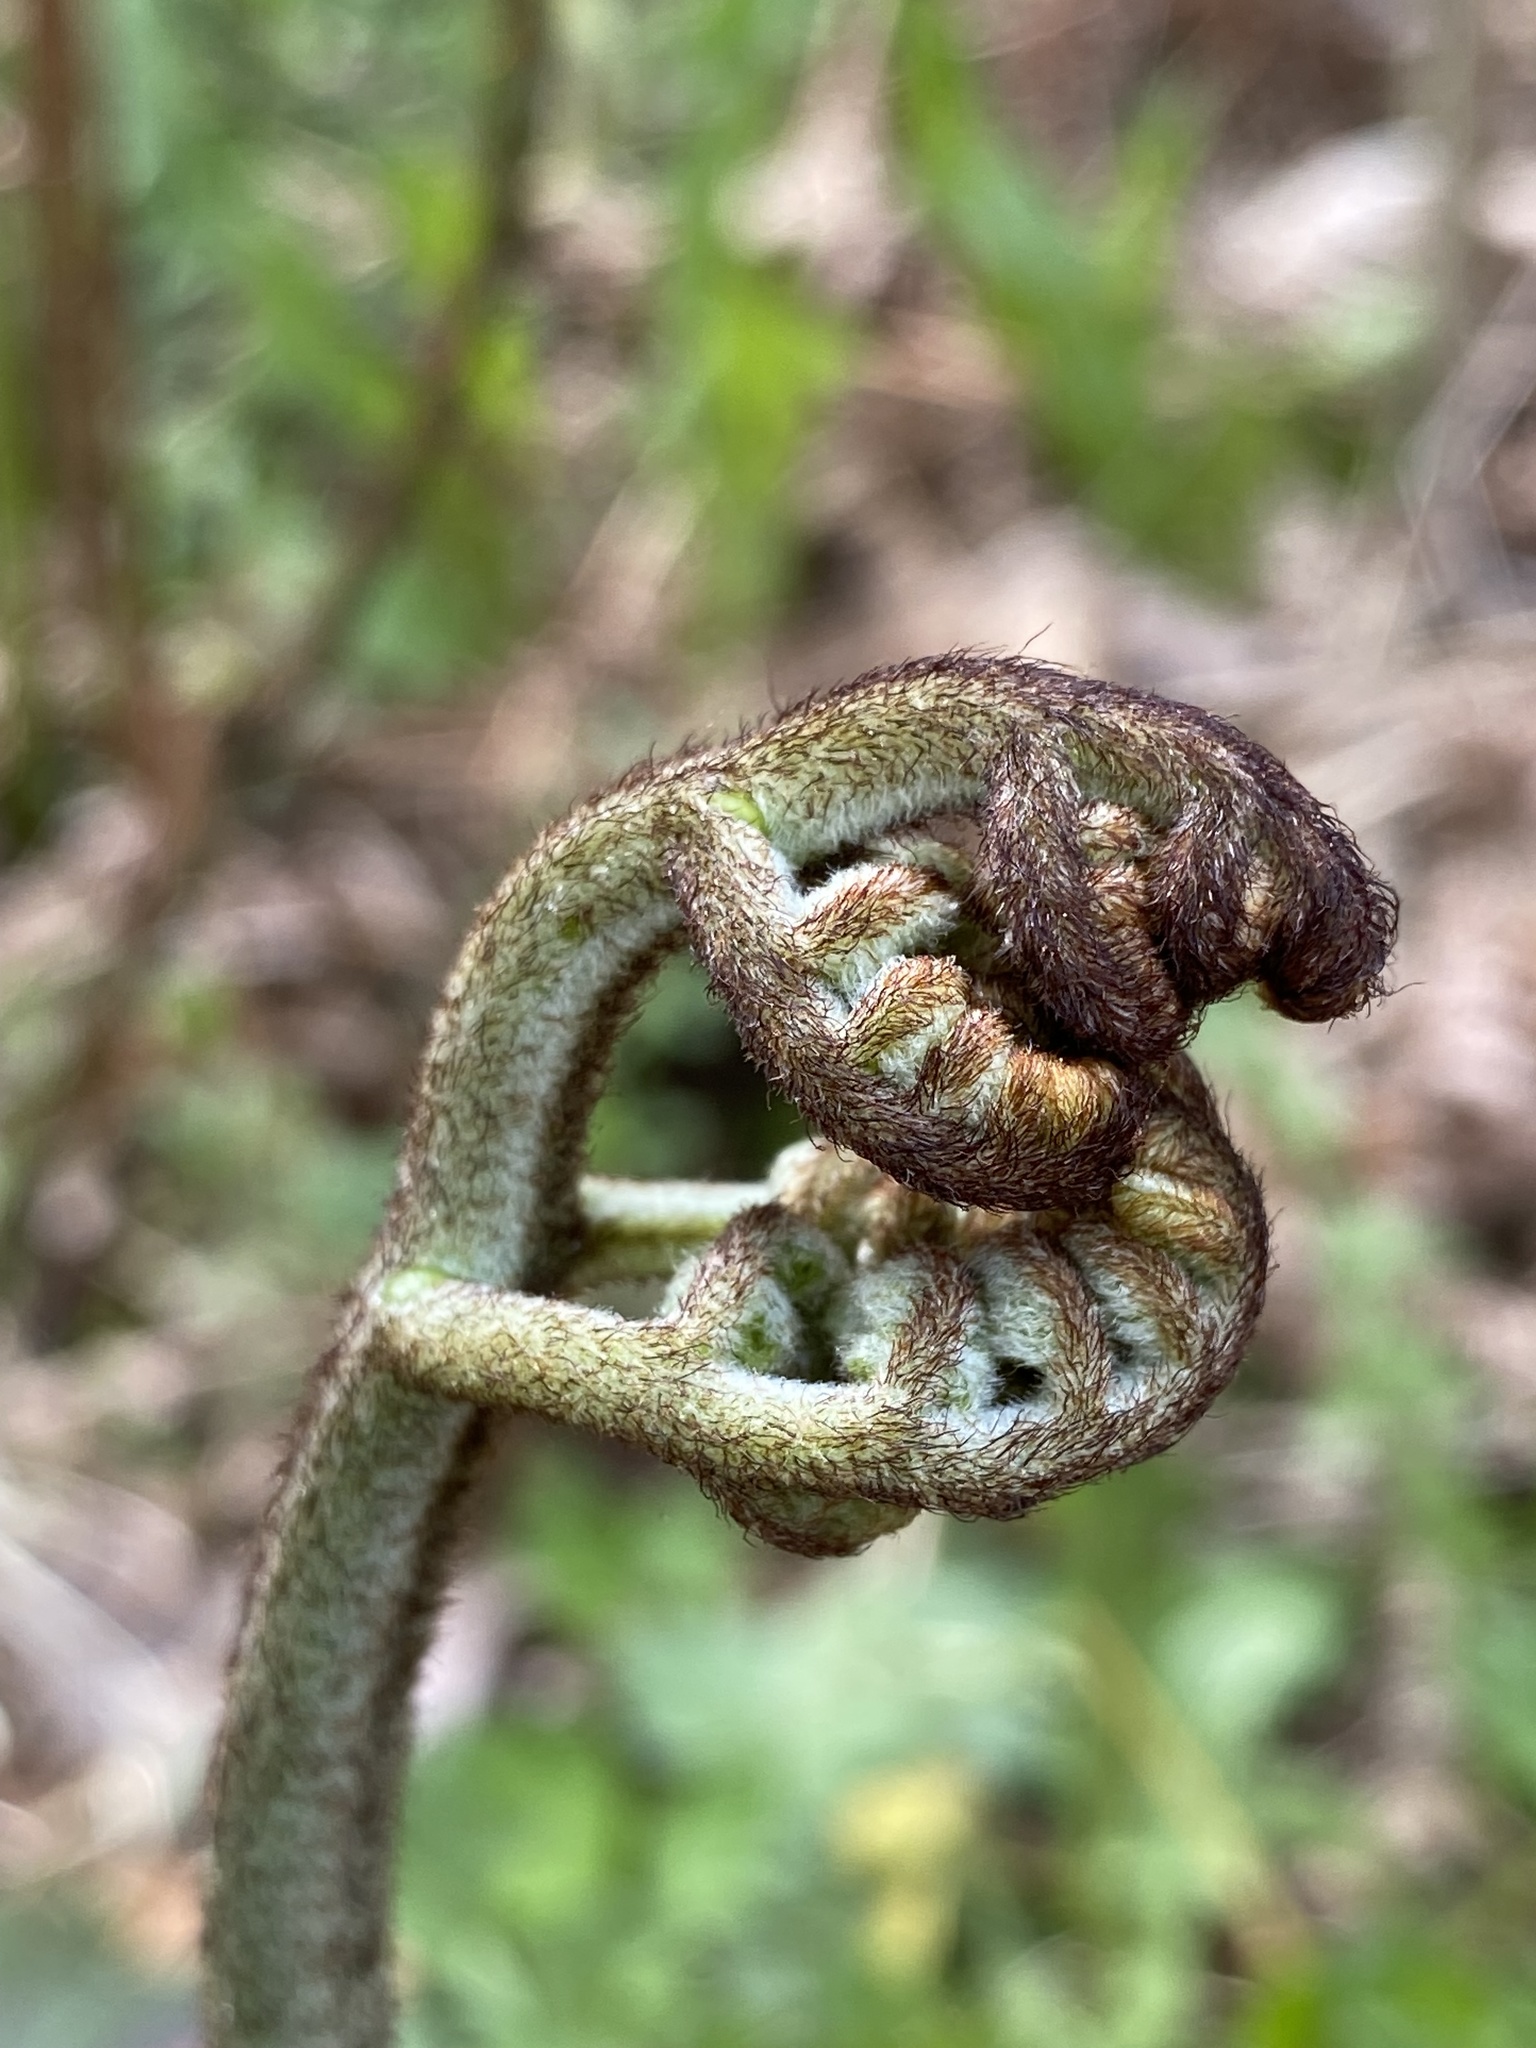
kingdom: Plantae
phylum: Tracheophyta
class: Polypodiopsida
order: Polypodiales
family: Dennstaedtiaceae
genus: Pteridium
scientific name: Pteridium aquilinum
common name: Bracken
